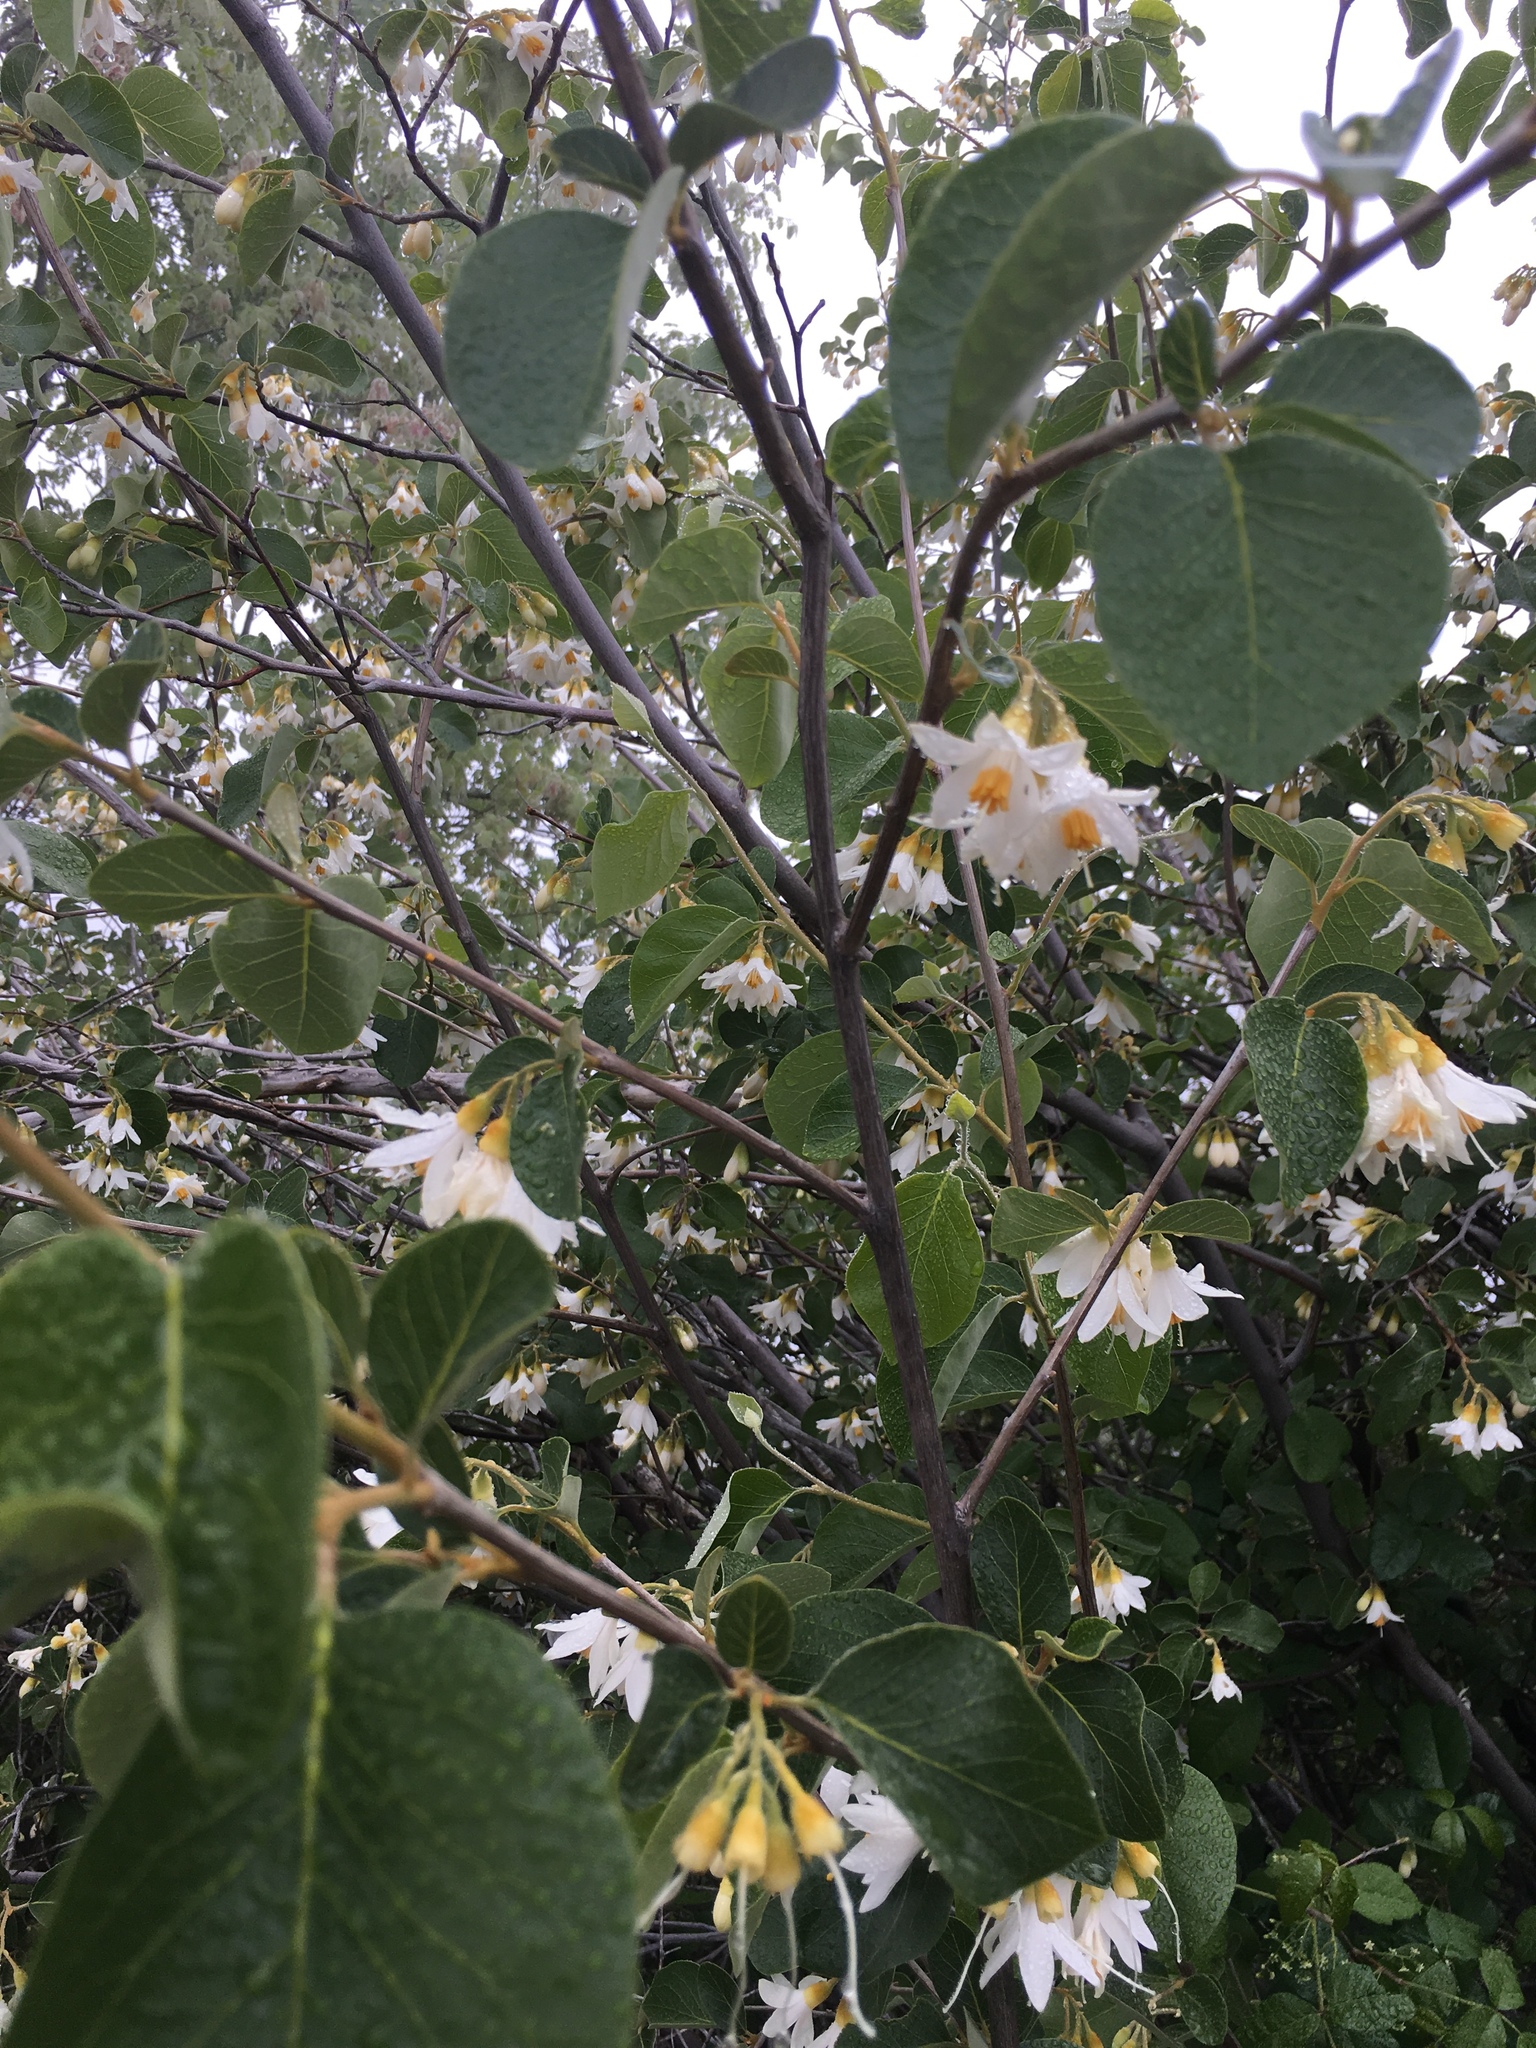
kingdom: Plantae
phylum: Tracheophyta
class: Magnoliopsida
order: Ericales
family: Styracaceae
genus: Styrax
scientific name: Styrax redivivus
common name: California styrax
